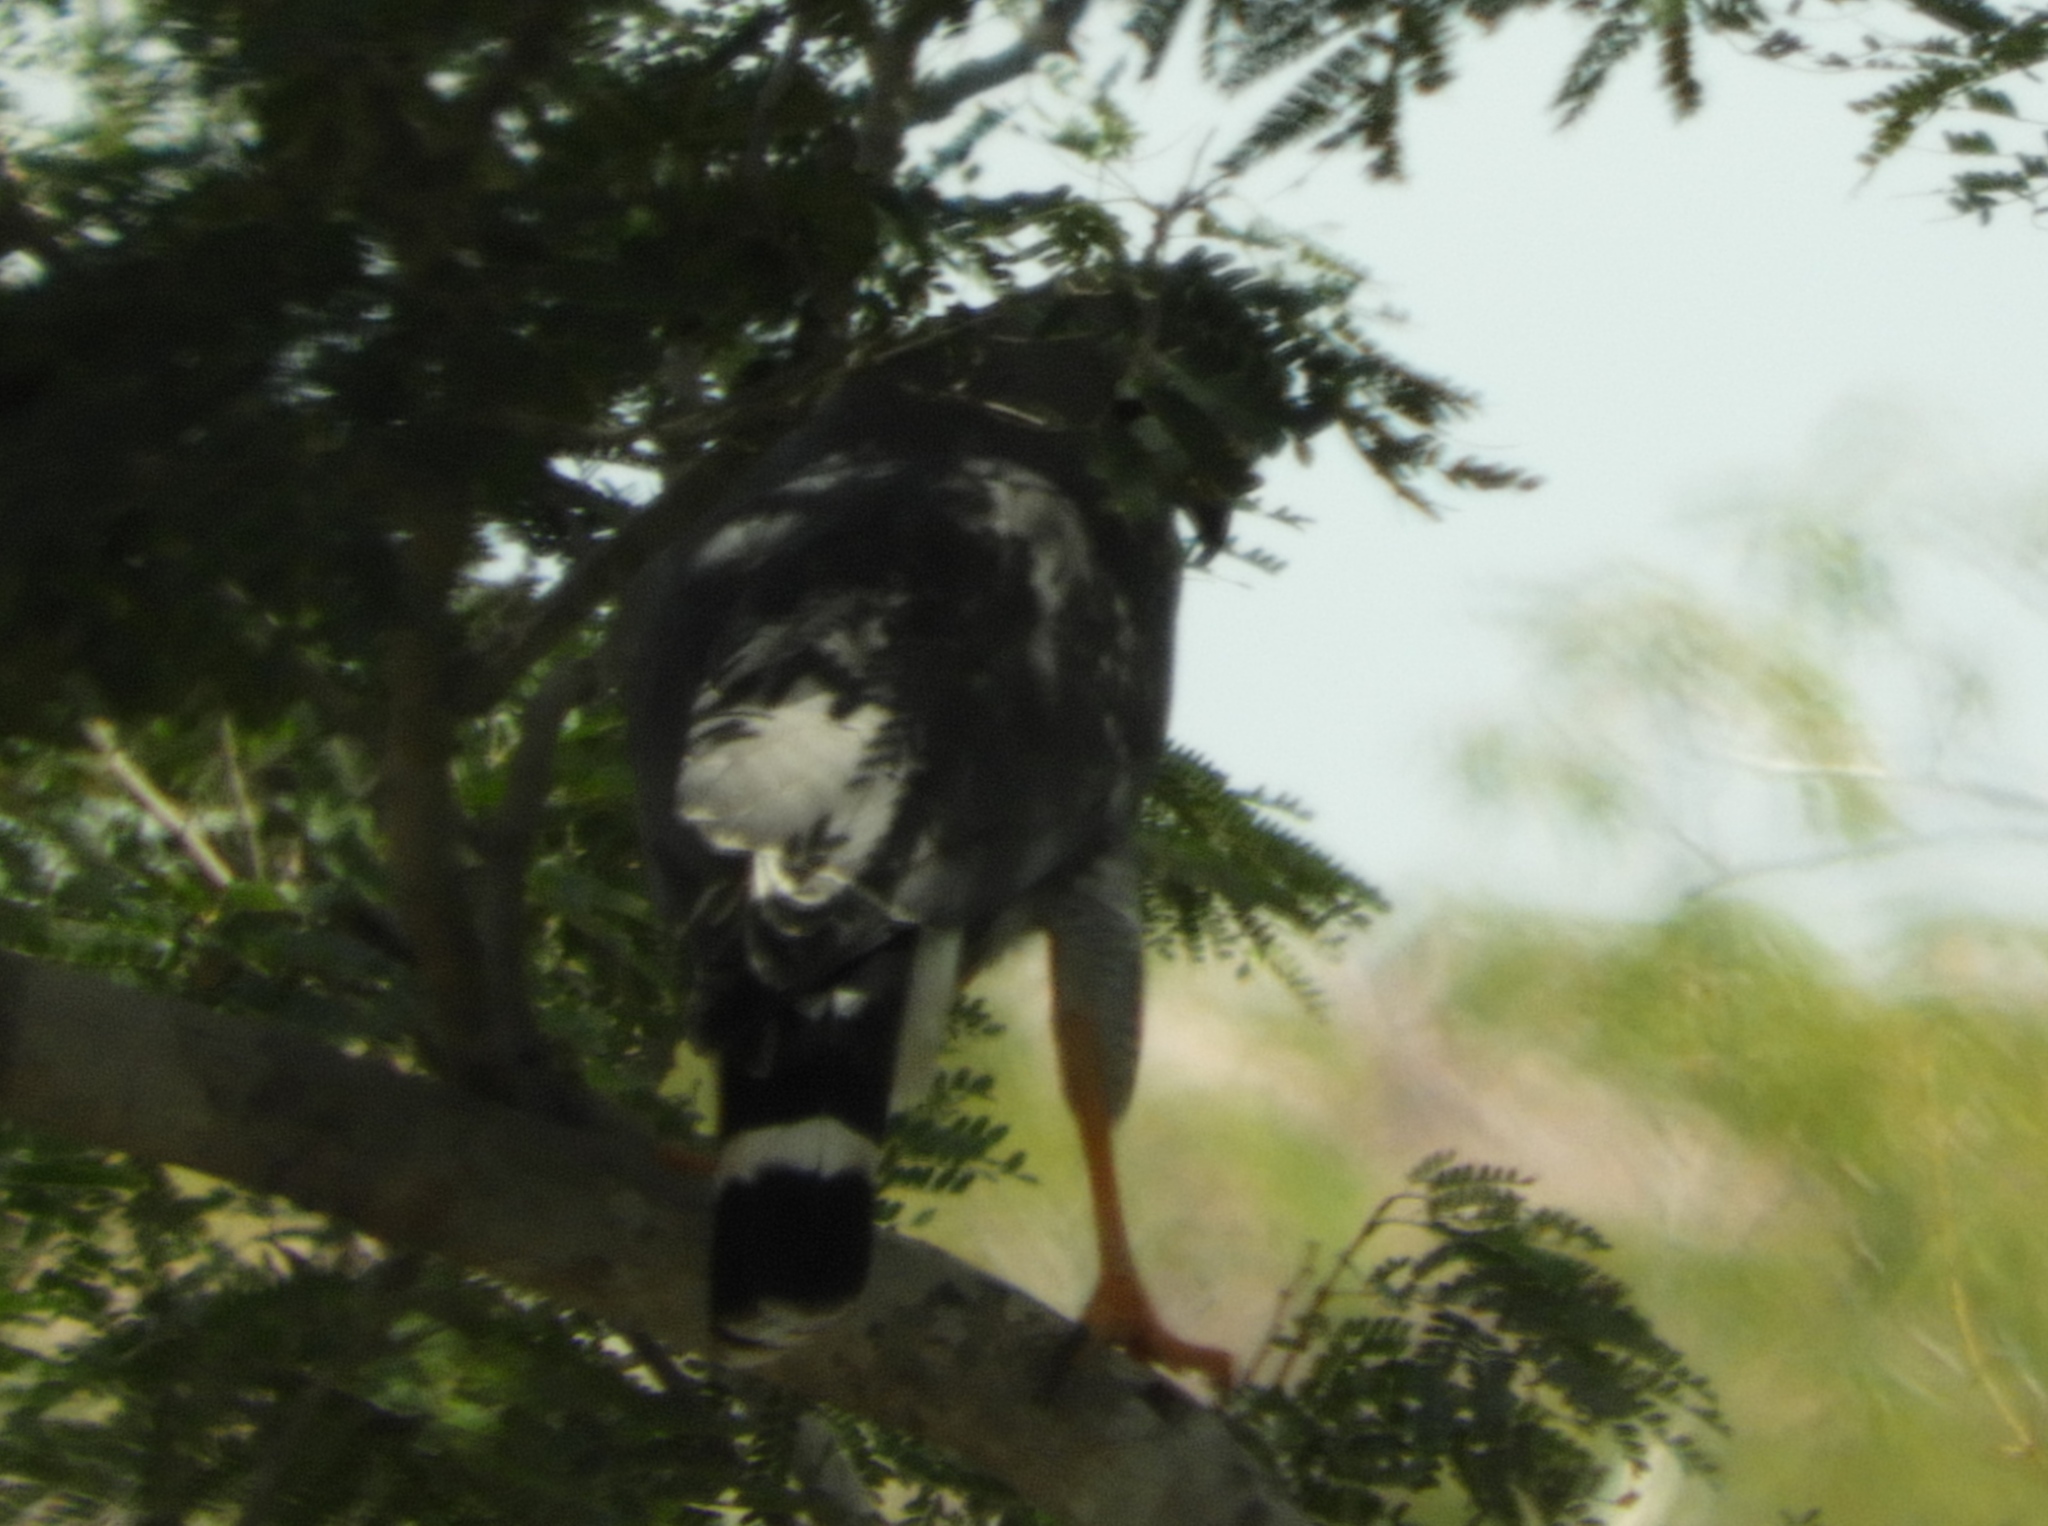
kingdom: Animalia
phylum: Chordata
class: Aves
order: Accipitriformes
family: Accipitridae
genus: Buteo
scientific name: Buteo nitidus
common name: Grey-lined hawk
